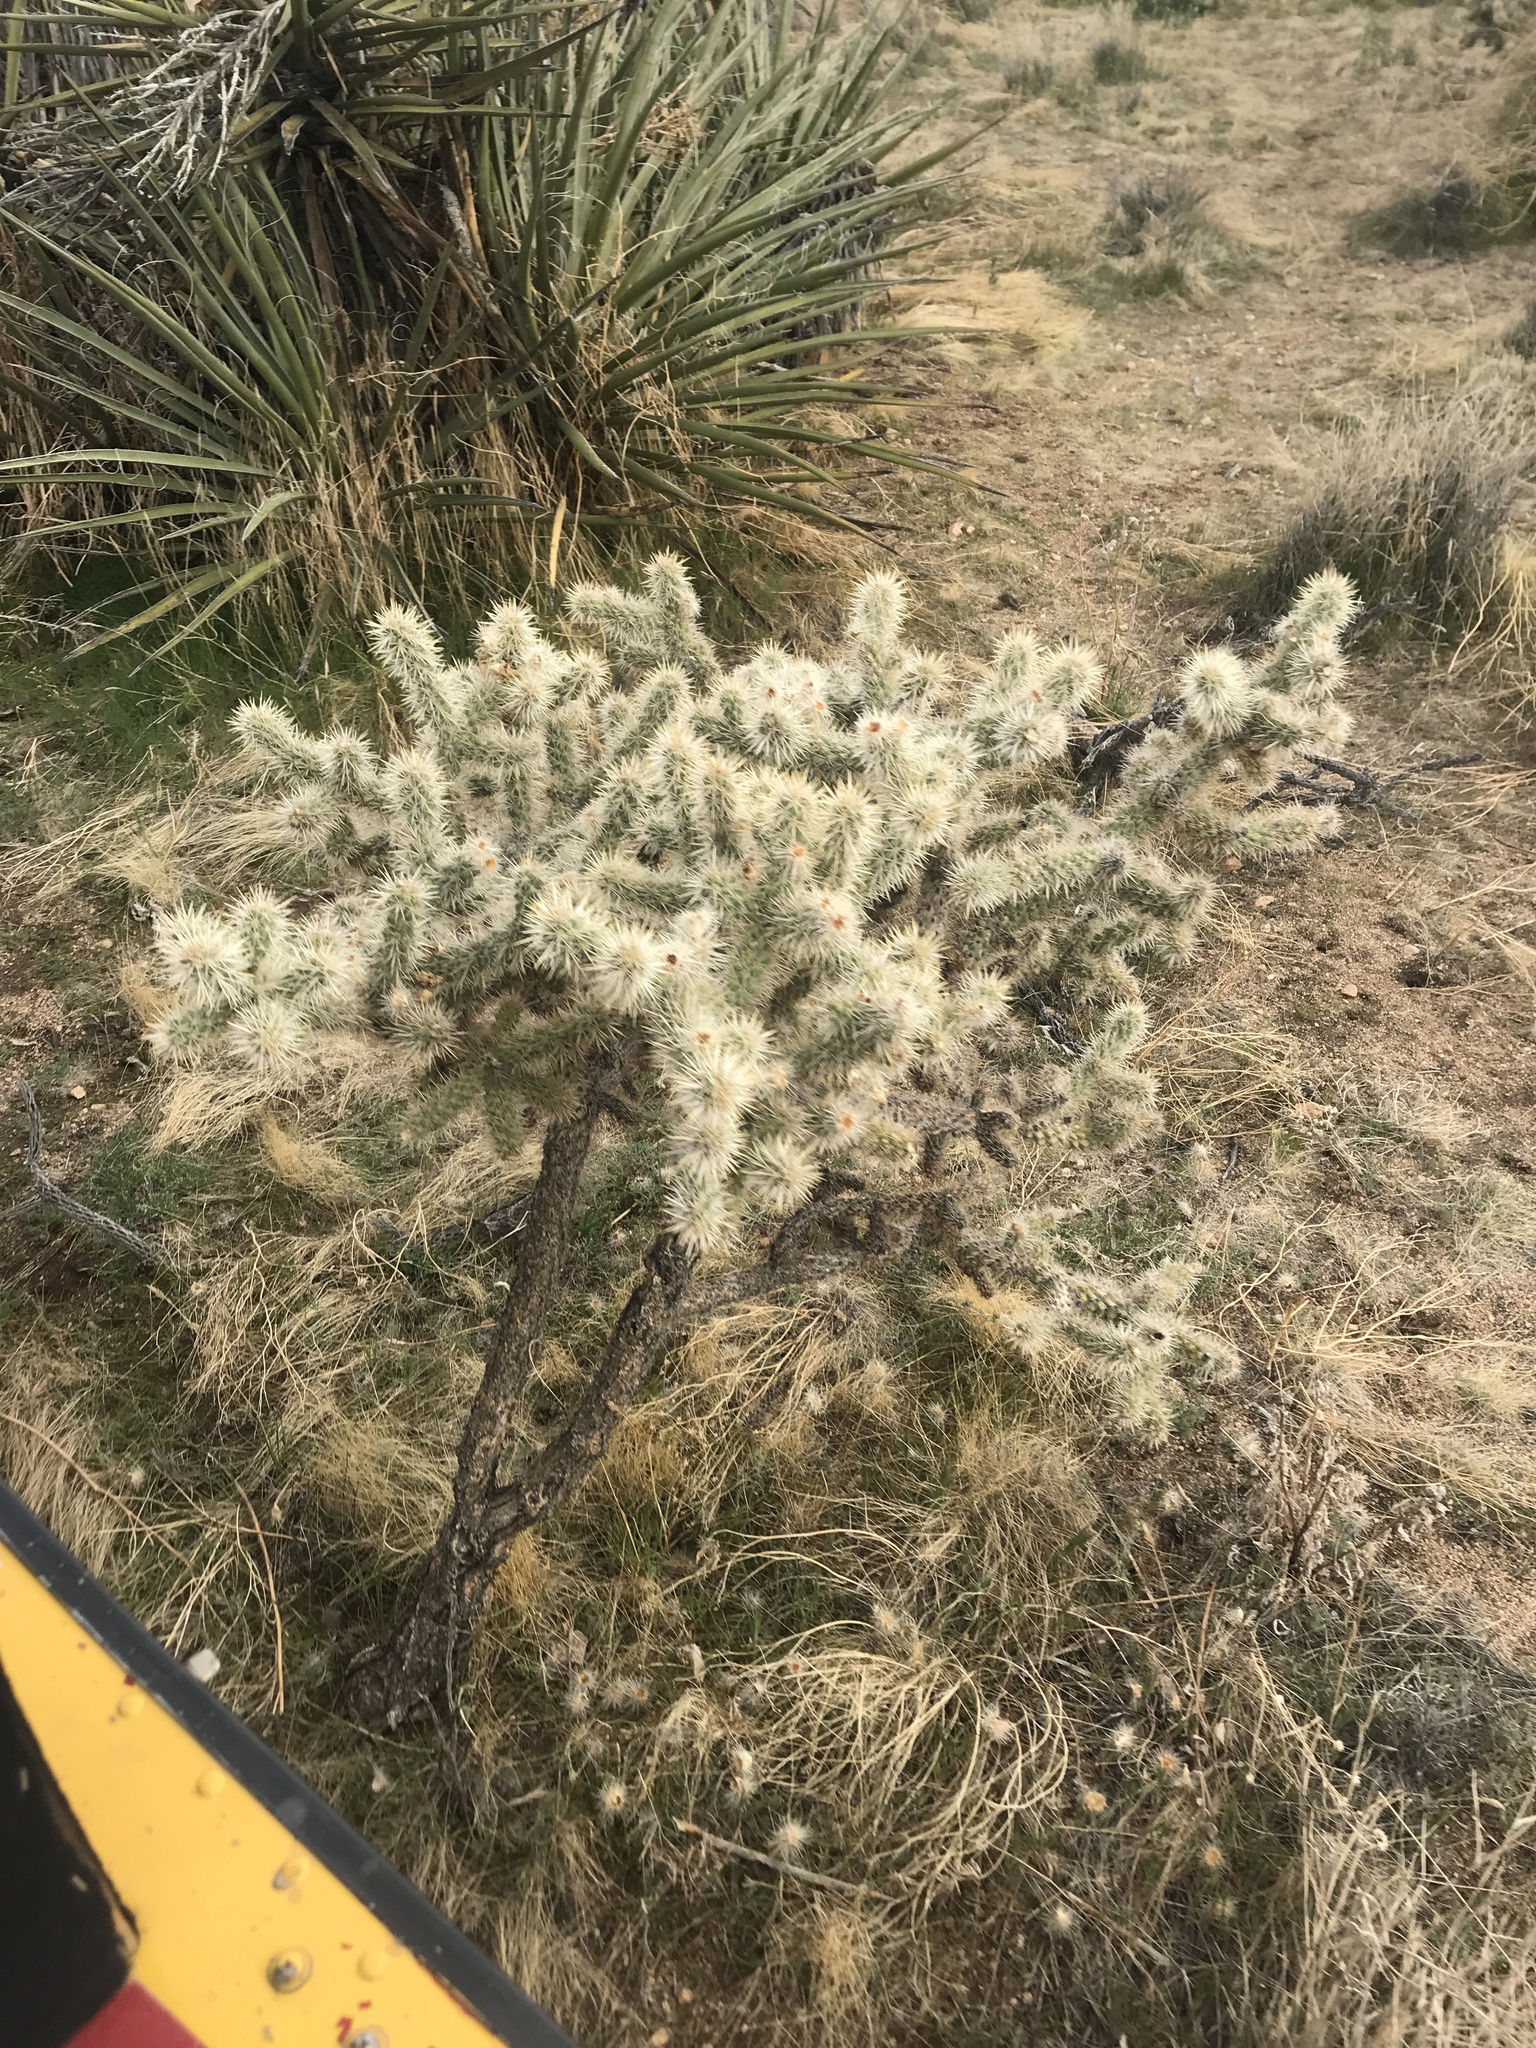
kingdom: Plantae
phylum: Tracheophyta
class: Magnoliopsida
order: Caryophyllales
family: Cactaceae
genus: Cylindropuntia
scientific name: Cylindropuntia echinocarpa
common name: Ground cholla
